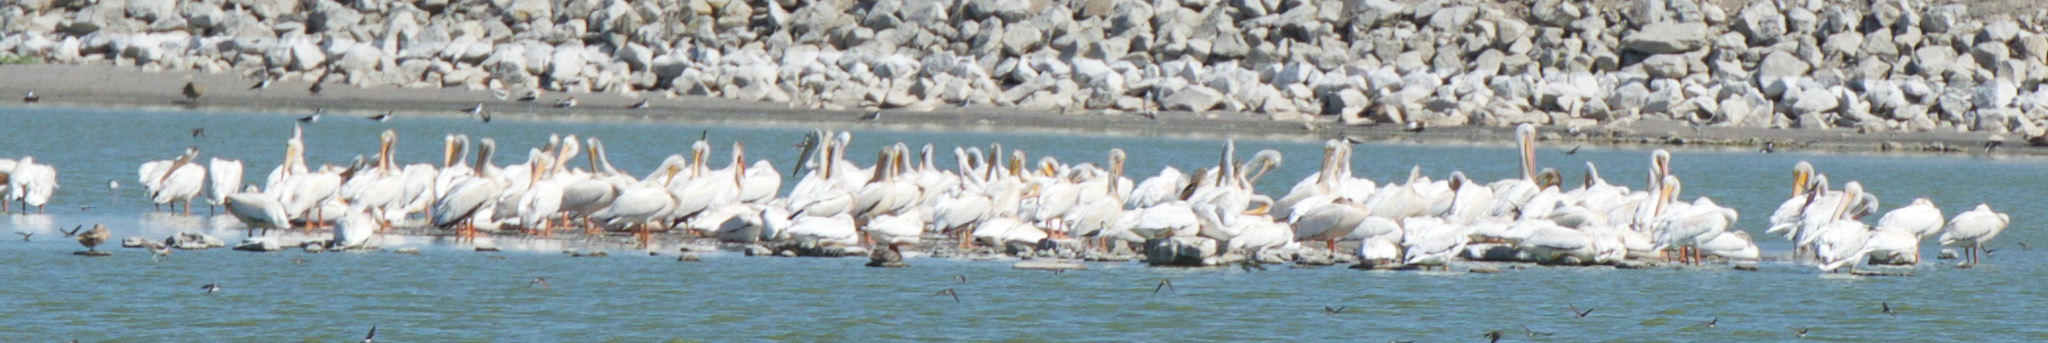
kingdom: Animalia
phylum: Chordata
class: Aves
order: Pelecaniformes
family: Pelecanidae
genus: Pelecanus
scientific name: Pelecanus erythrorhynchos
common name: American white pelican
